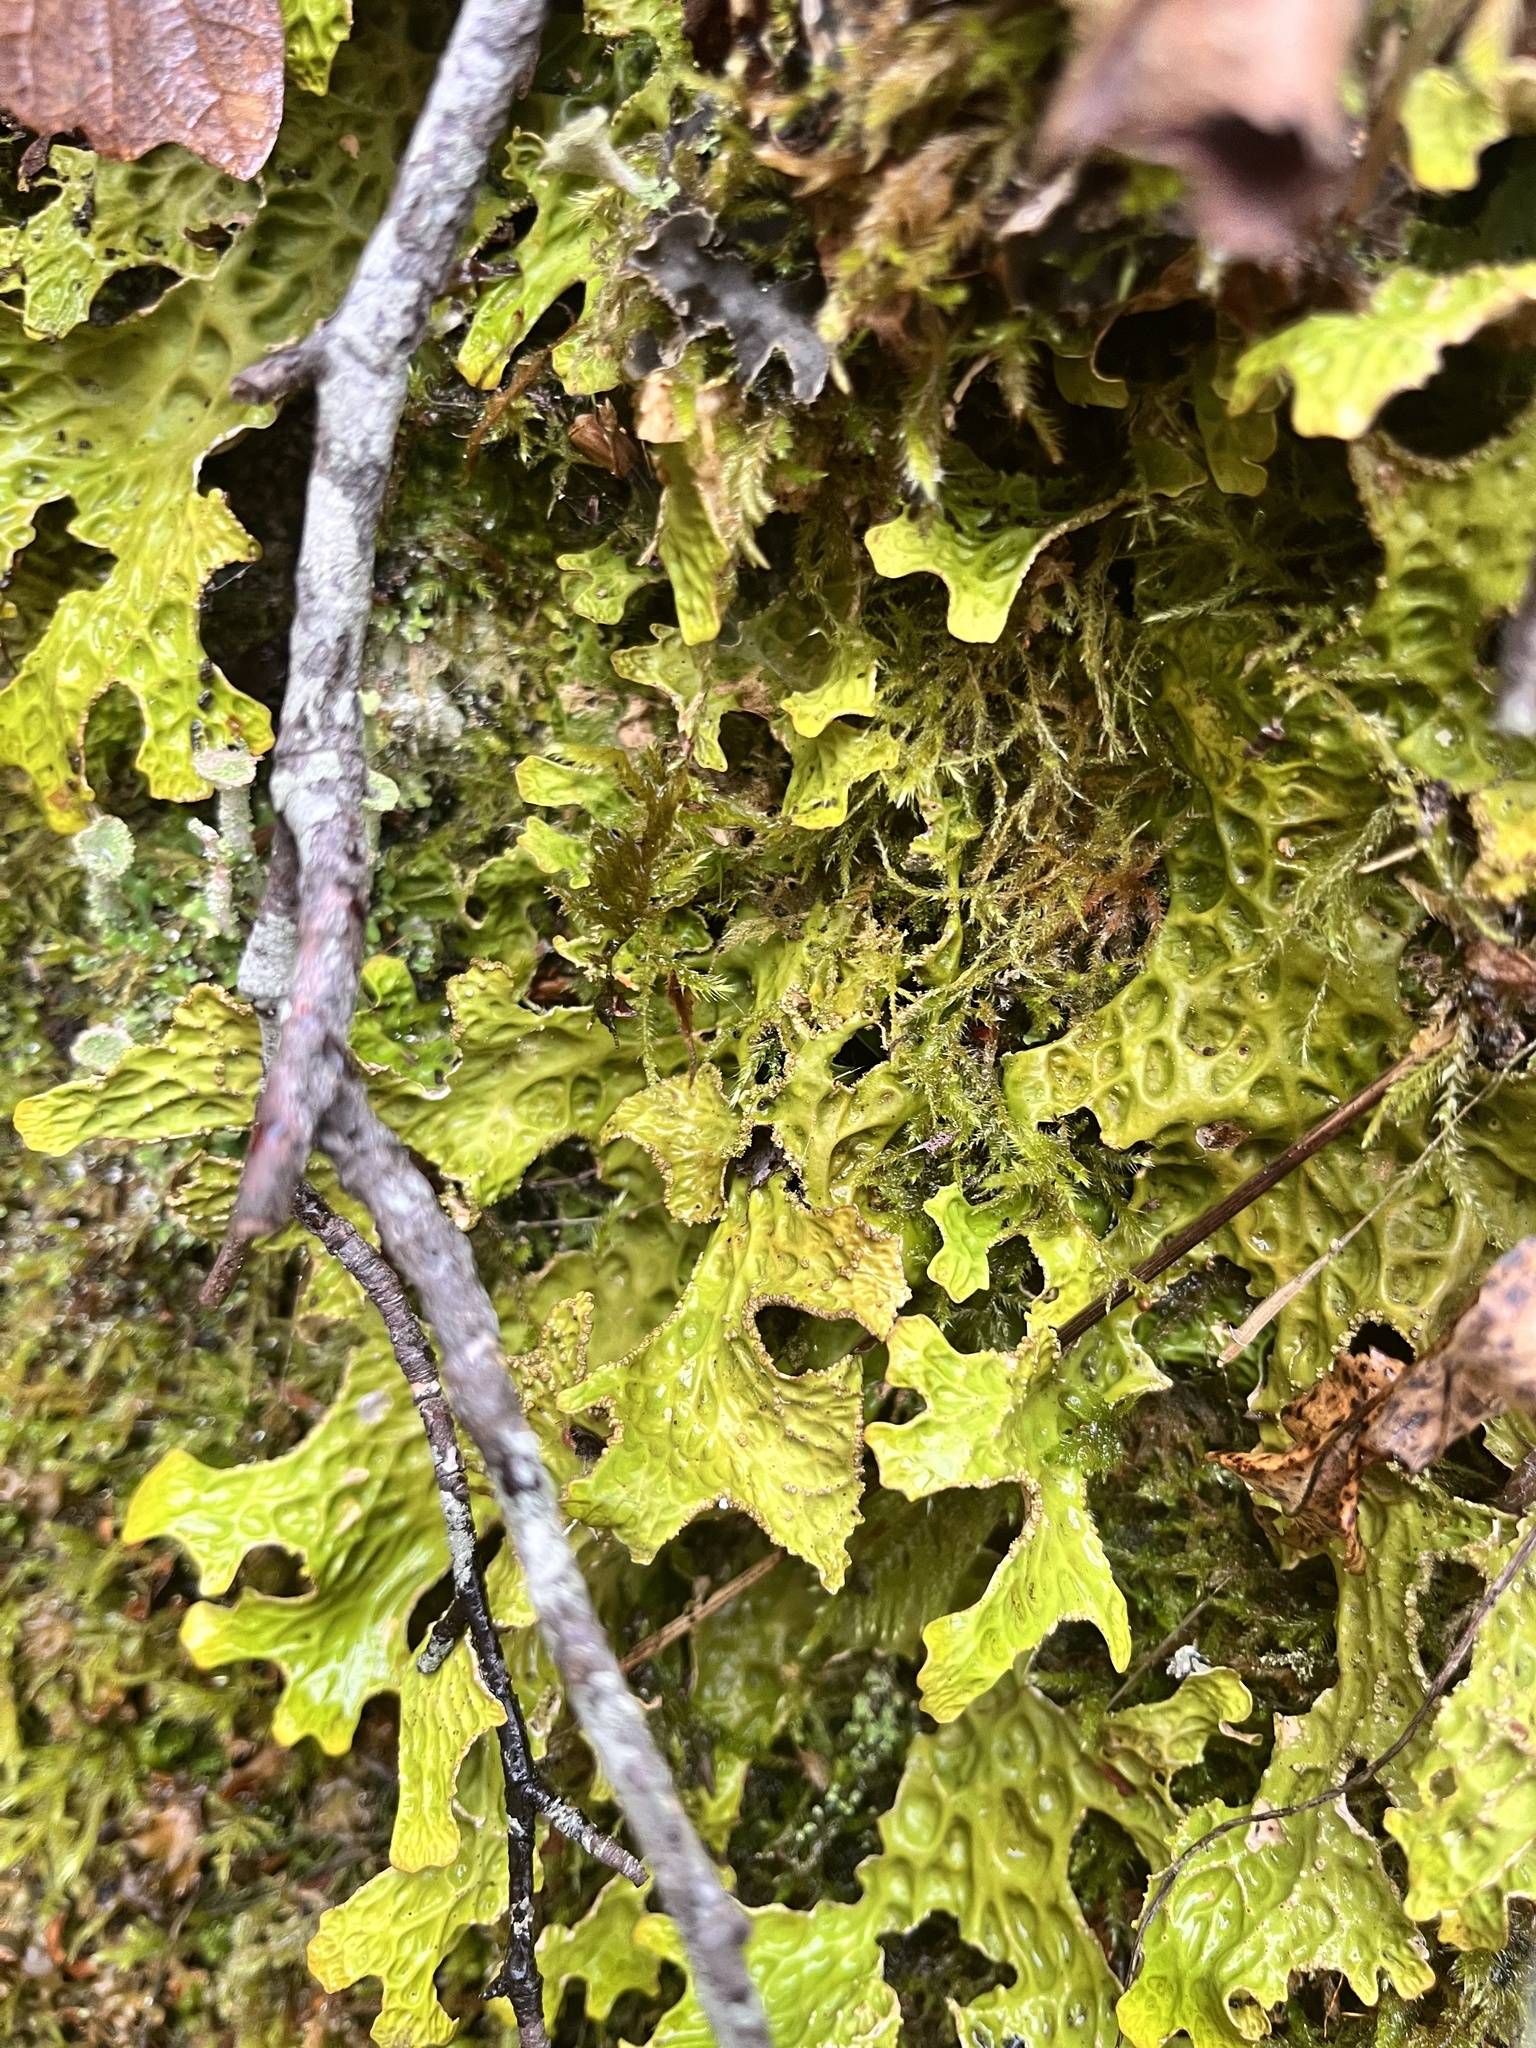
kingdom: Fungi
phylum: Ascomycota
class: Lecanoromycetes
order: Peltigerales
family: Lobariaceae
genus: Lobaria
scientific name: Lobaria pulmonaria
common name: Lungwort
